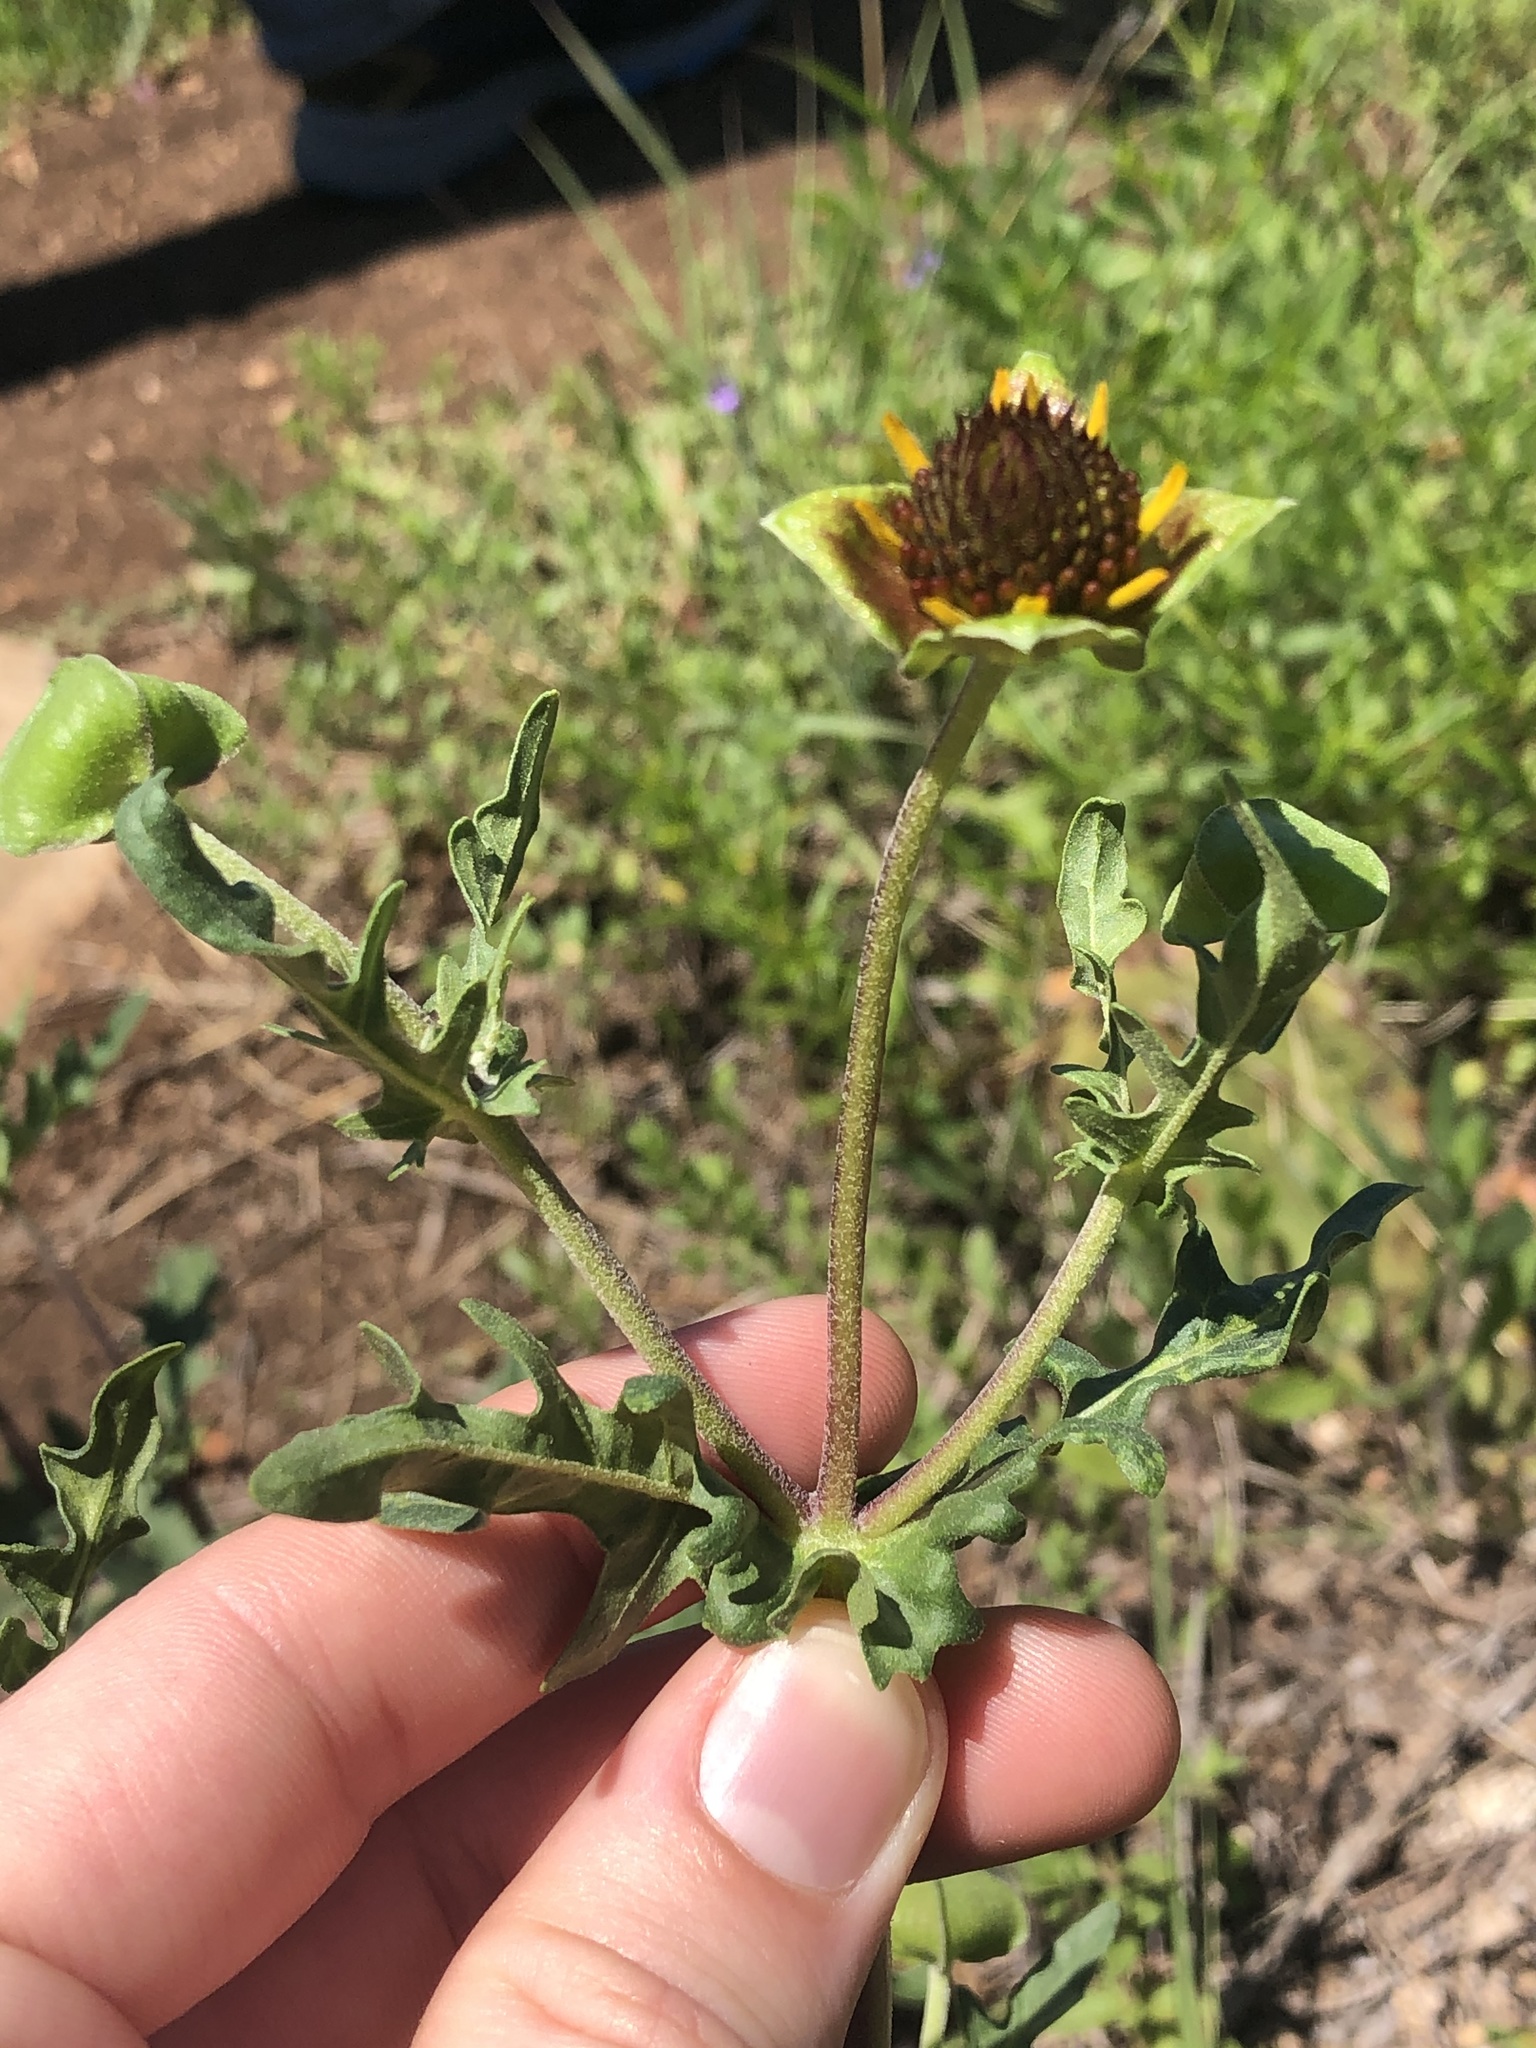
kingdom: Plantae
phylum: Tracheophyta
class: Magnoliopsida
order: Asterales
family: Asteraceae
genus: Tetragonotheca
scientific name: Tetragonotheca texana
